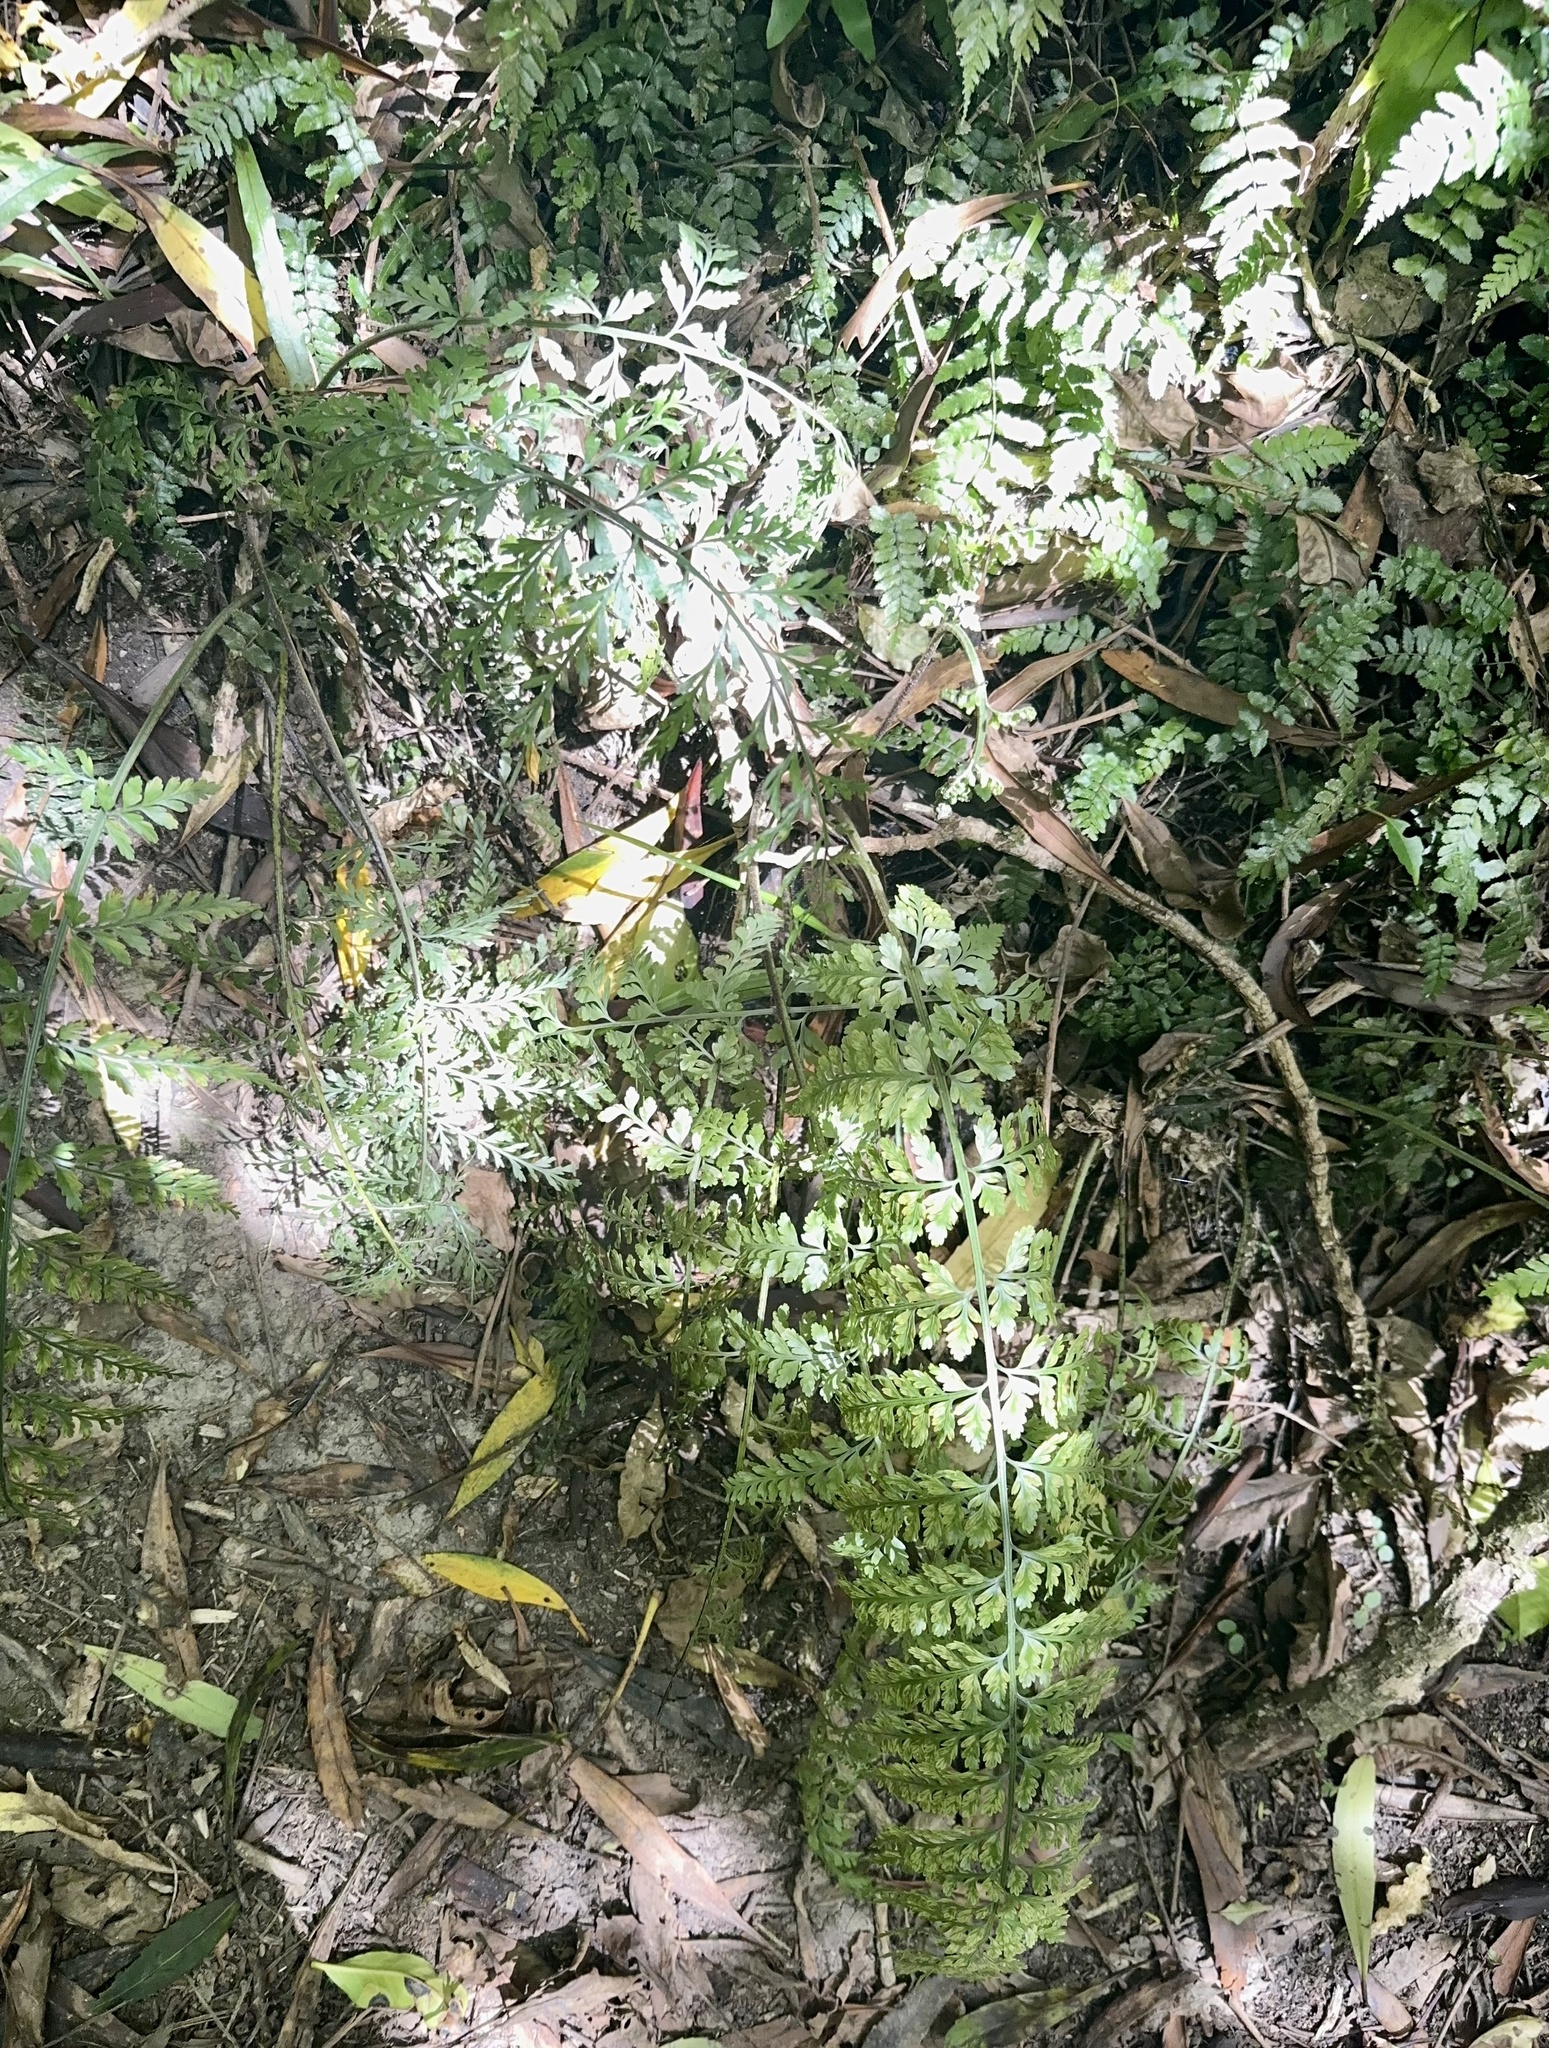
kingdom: Plantae
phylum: Tracheophyta
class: Polypodiopsida
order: Polypodiales
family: Aspleniaceae
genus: Asplenium
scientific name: Asplenium bulbiferum
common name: Mother fern
